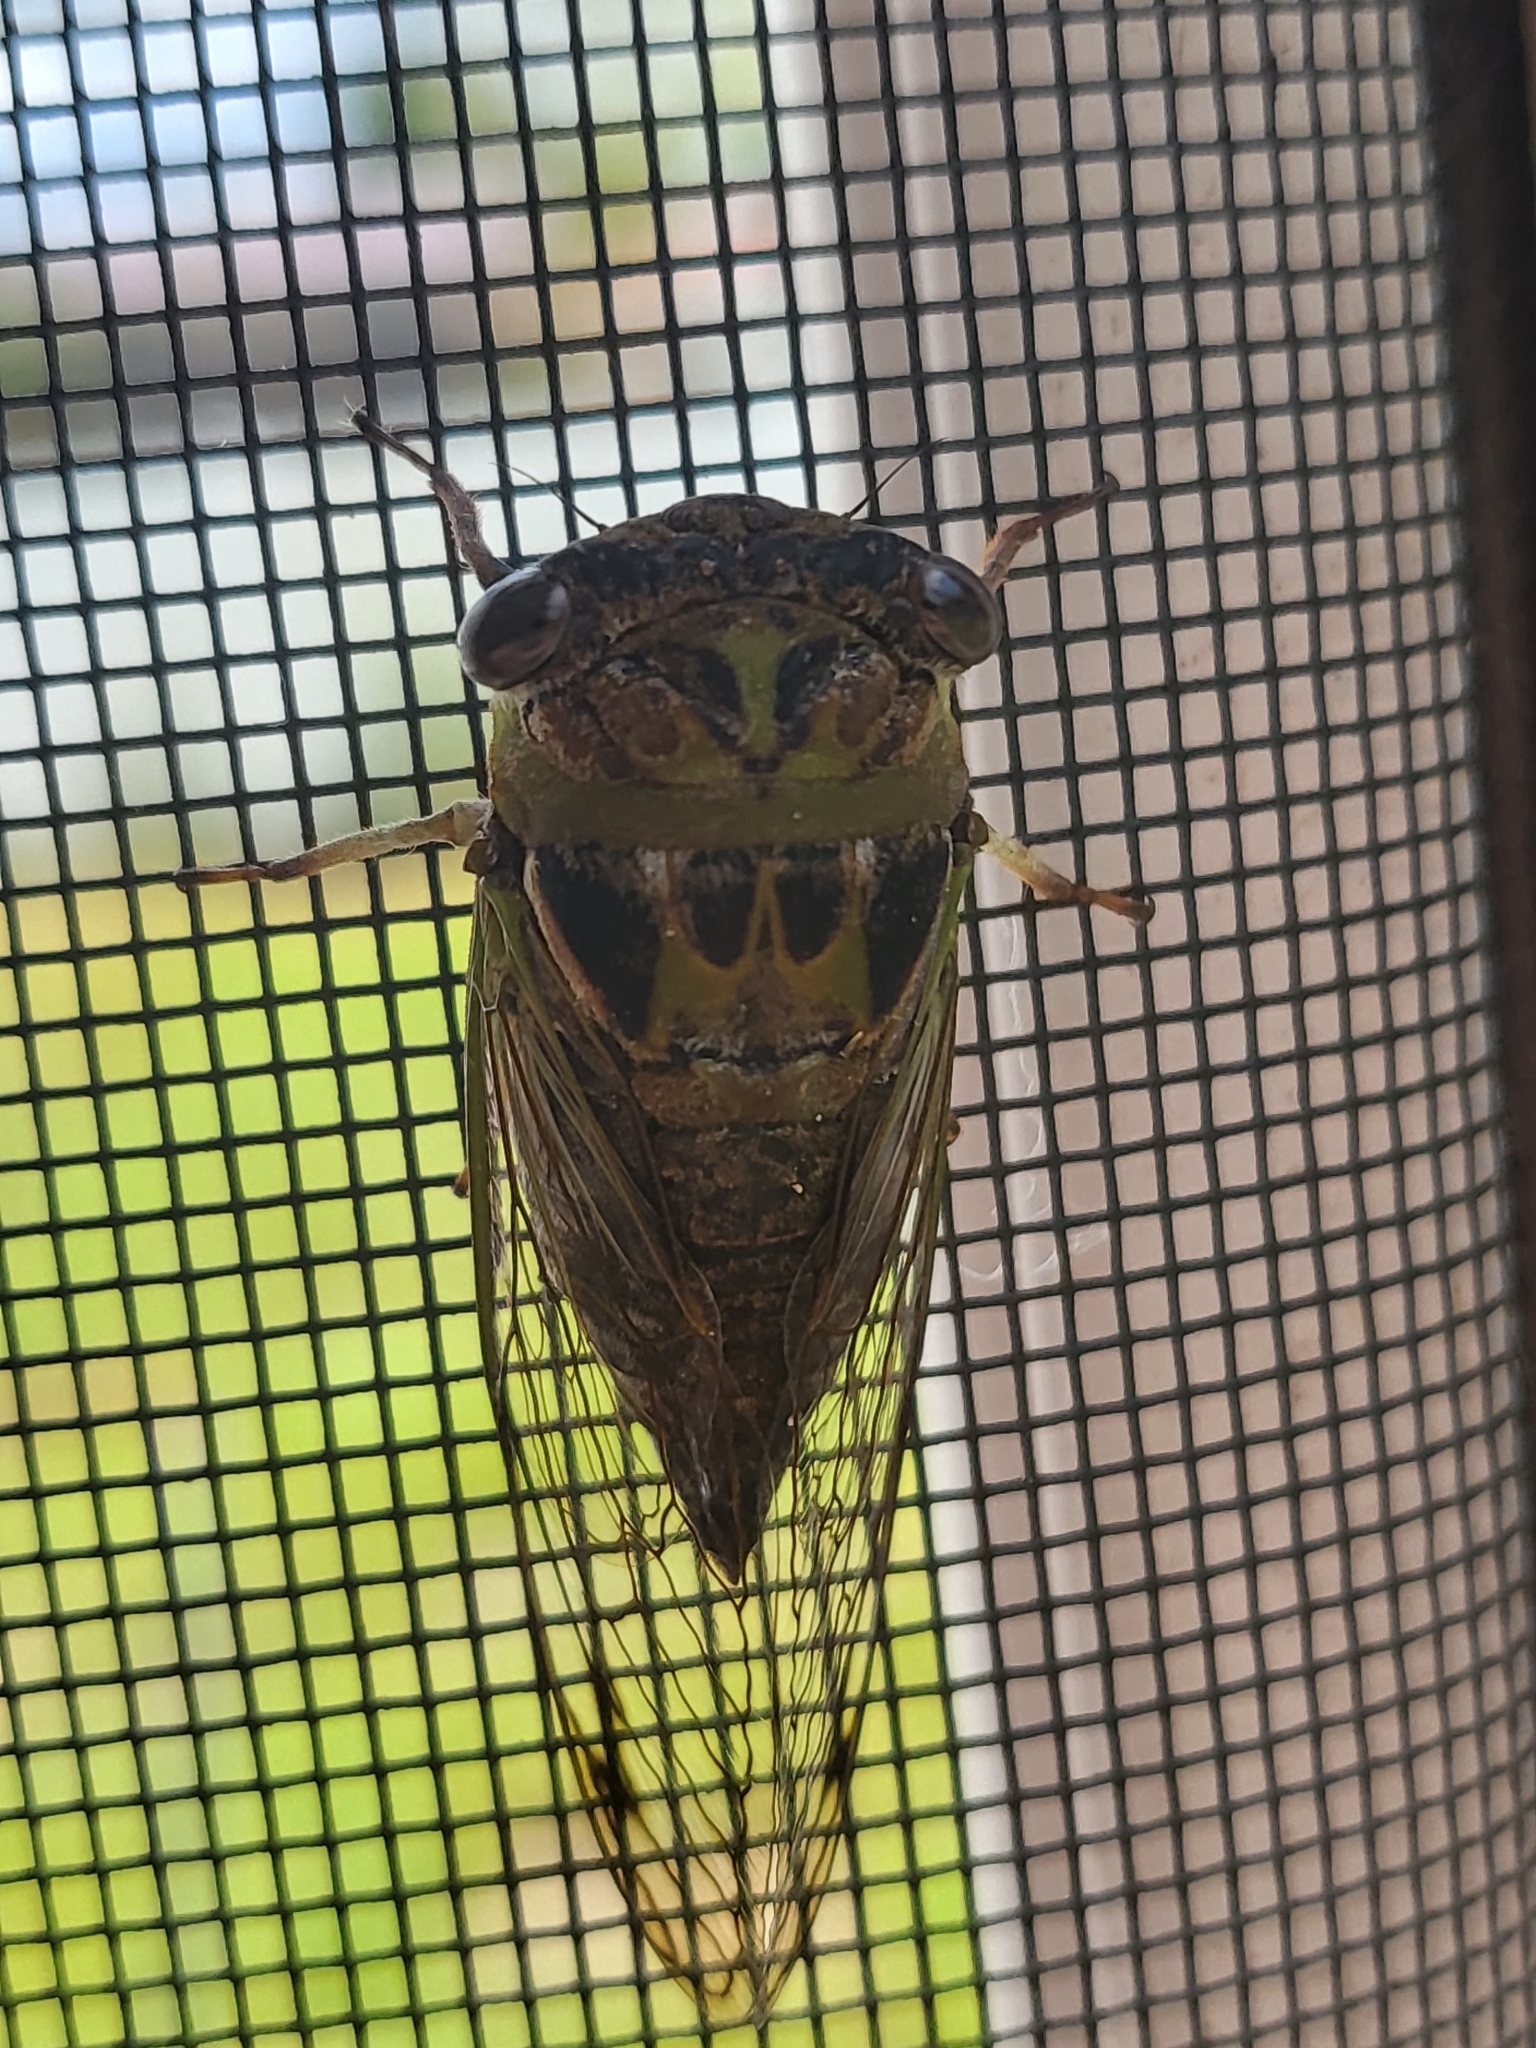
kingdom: Animalia
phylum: Arthropoda
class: Insecta
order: Hemiptera
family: Cicadidae
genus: Neotibicen
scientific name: Neotibicen davisi
